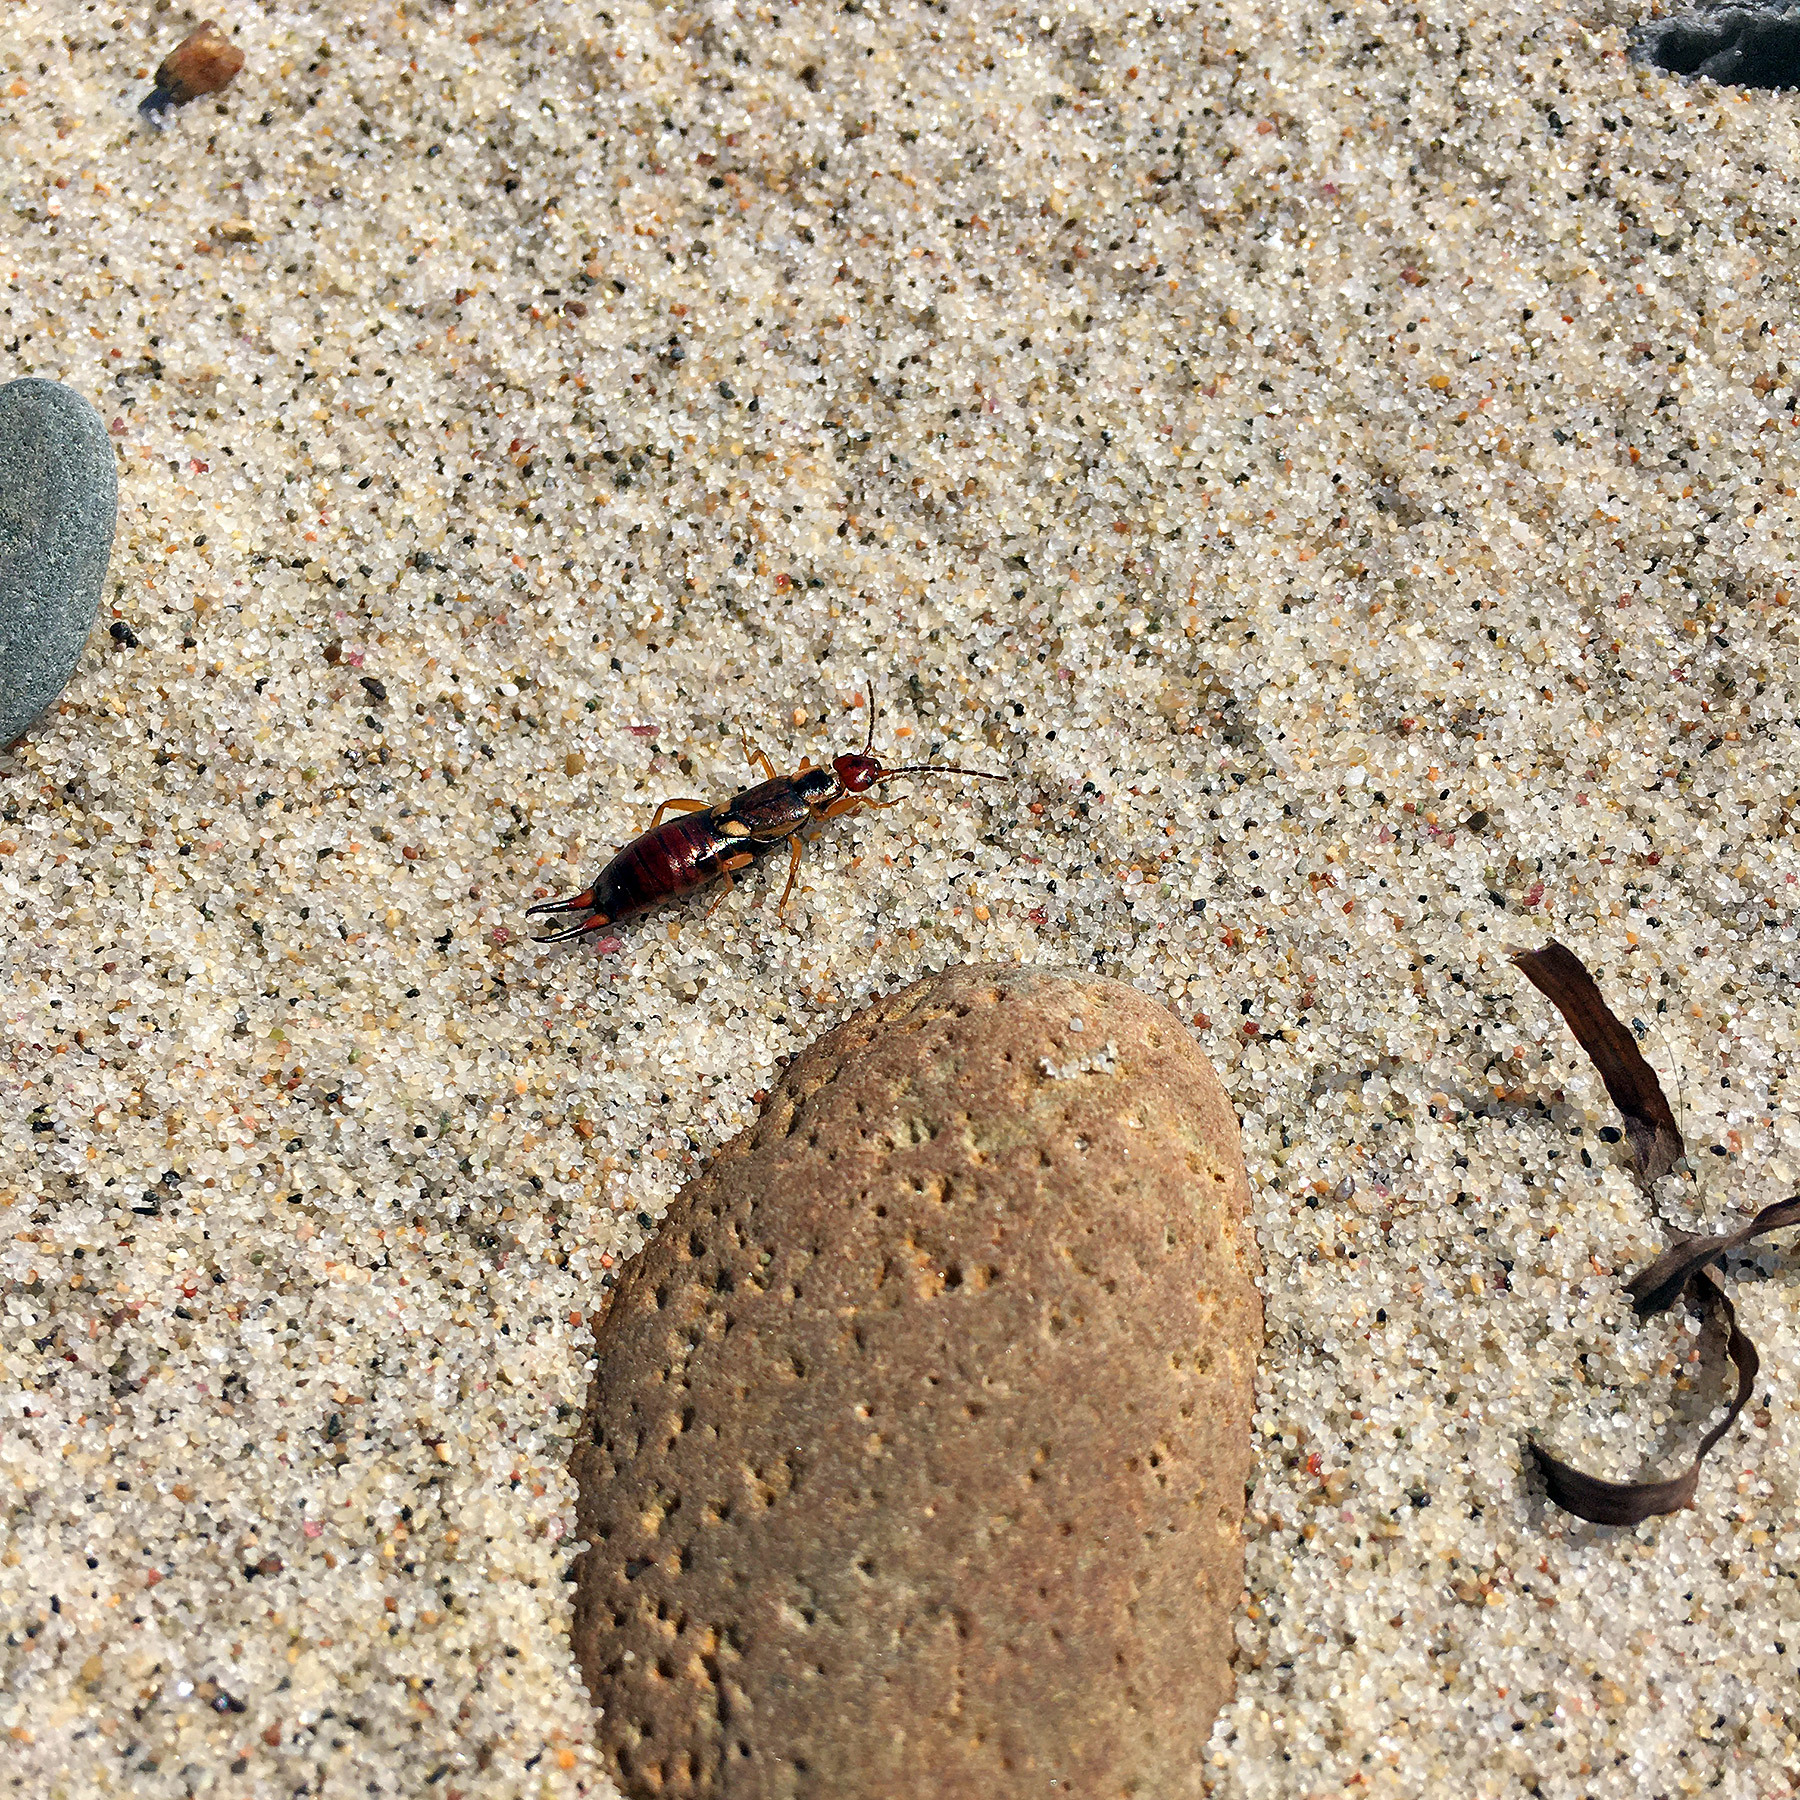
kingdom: Animalia
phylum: Arthropoda
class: Insecta
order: Dermaptera
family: Forficulidae
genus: Forficula
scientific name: Forficula
